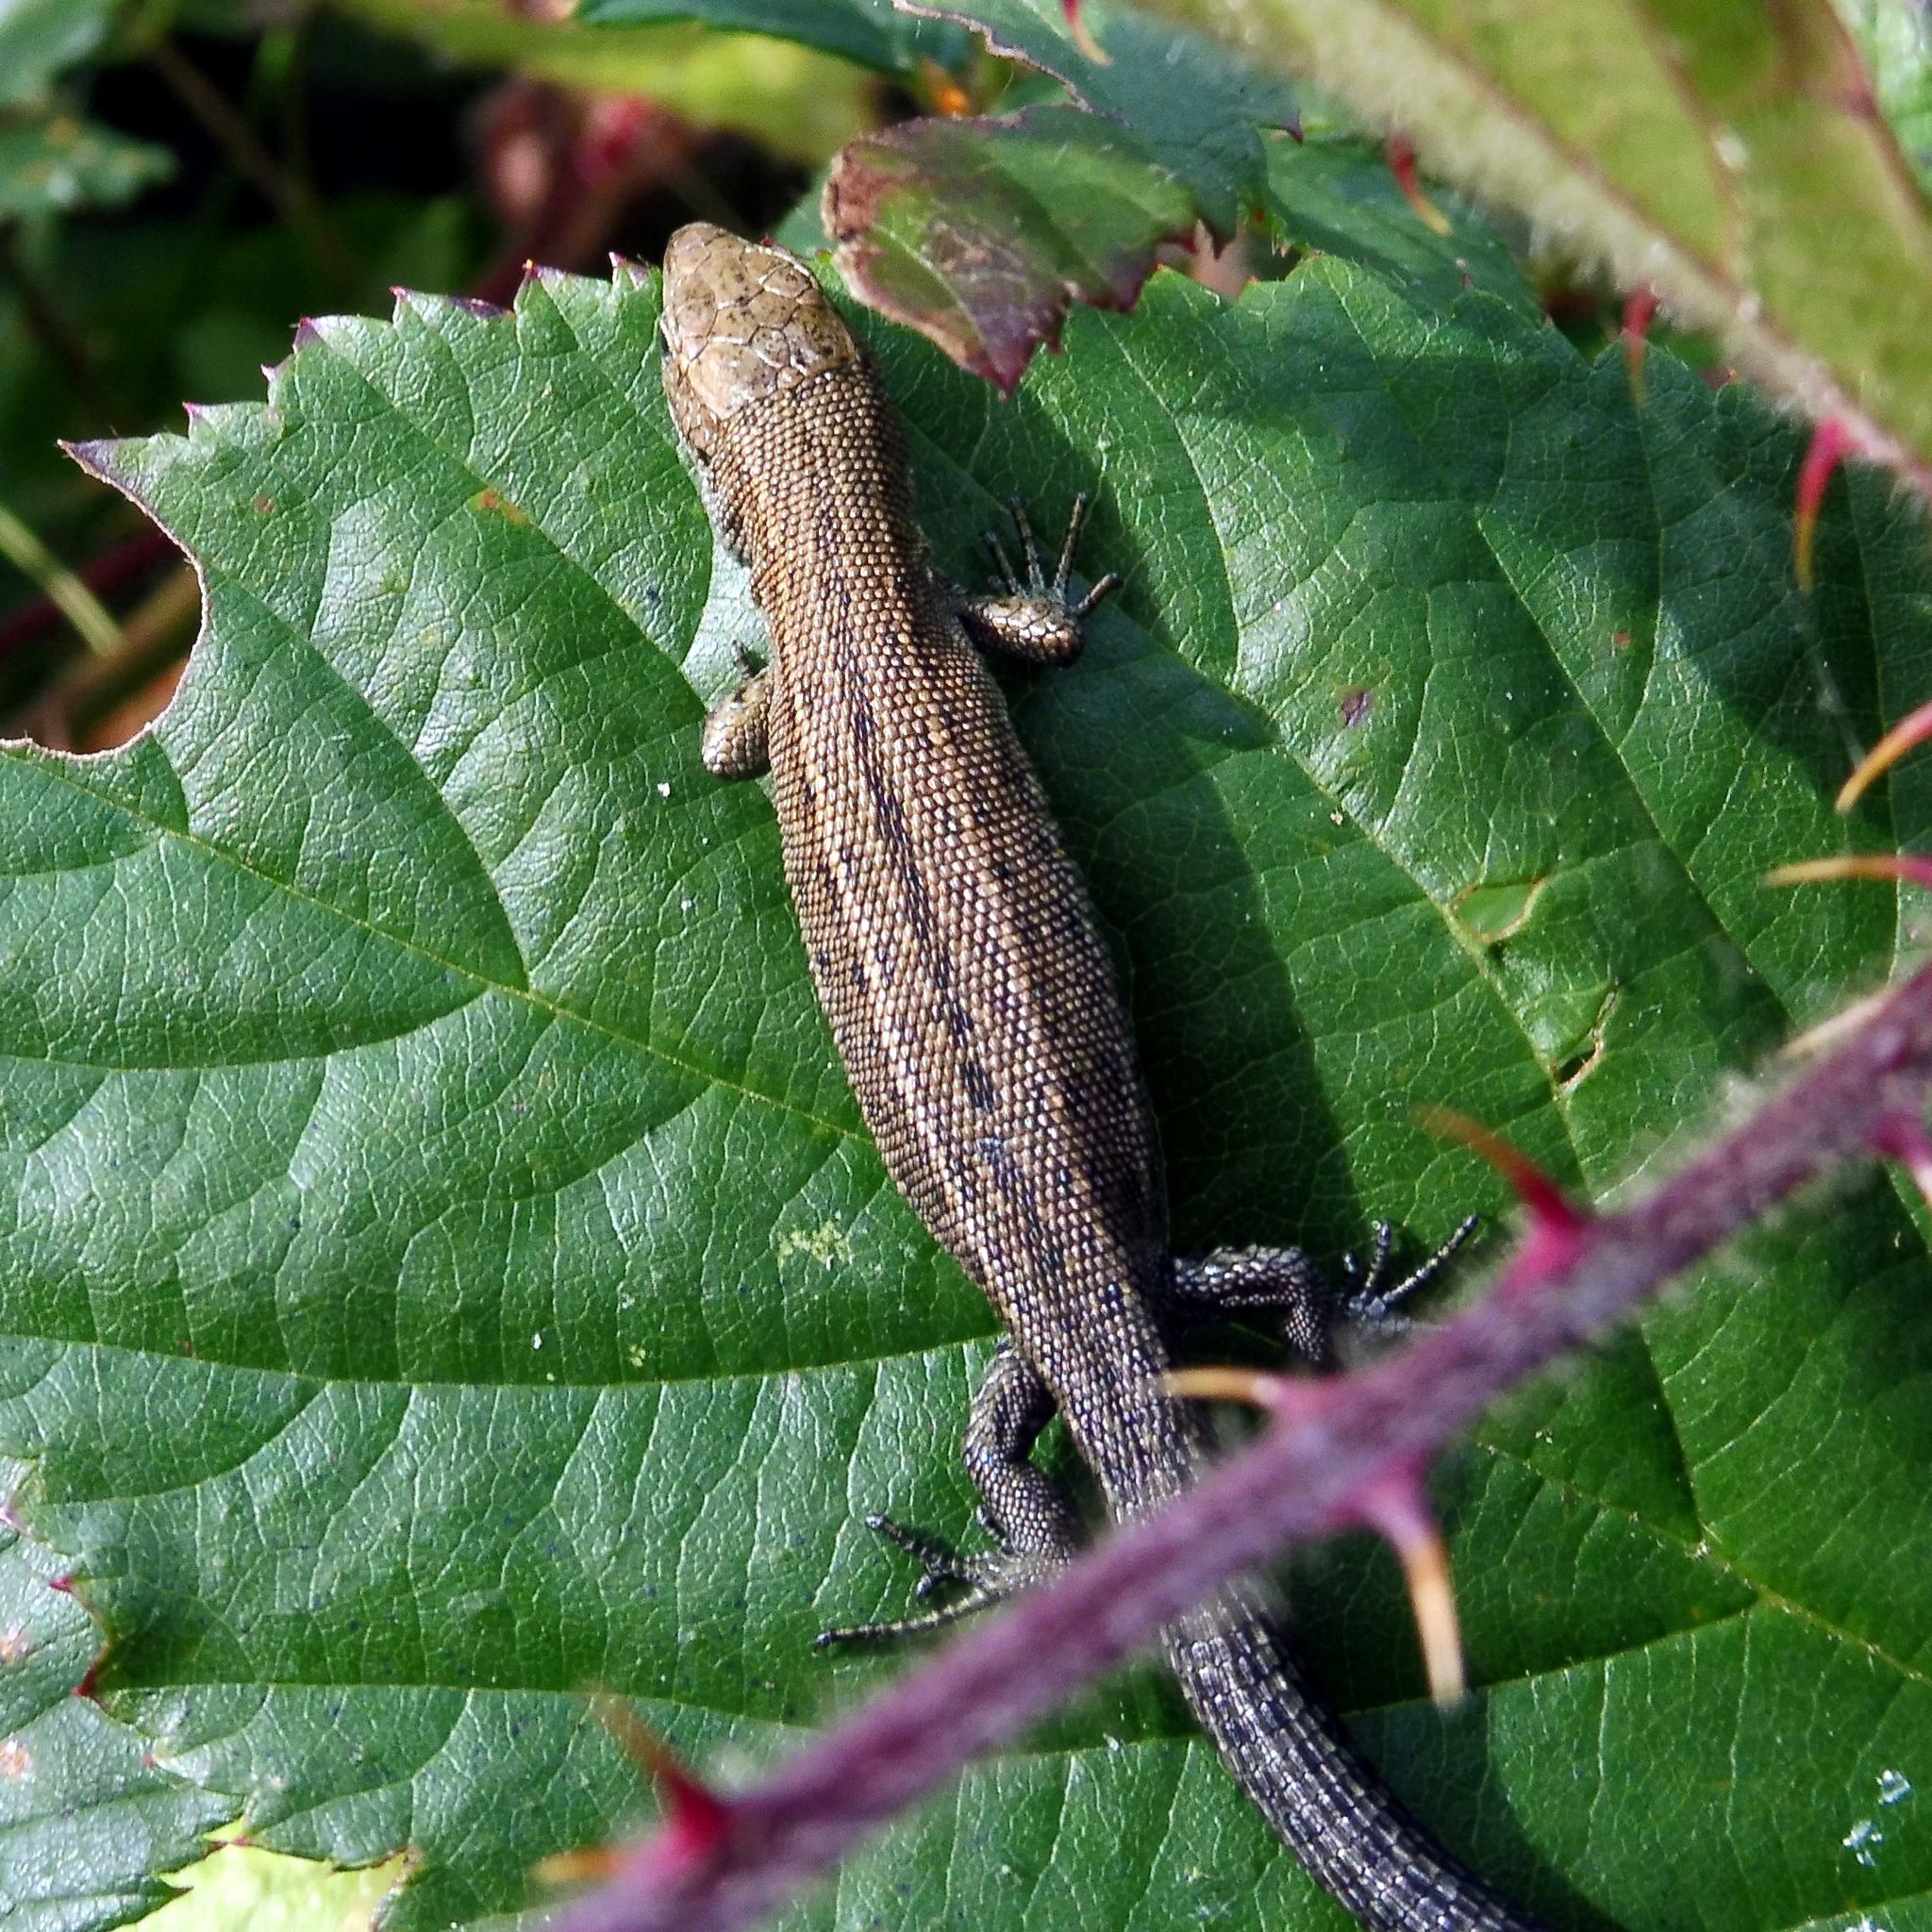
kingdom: Animalia
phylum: Chordata
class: Squamata
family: Lacertidae
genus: Zootoca
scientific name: Zootoca vivipara
